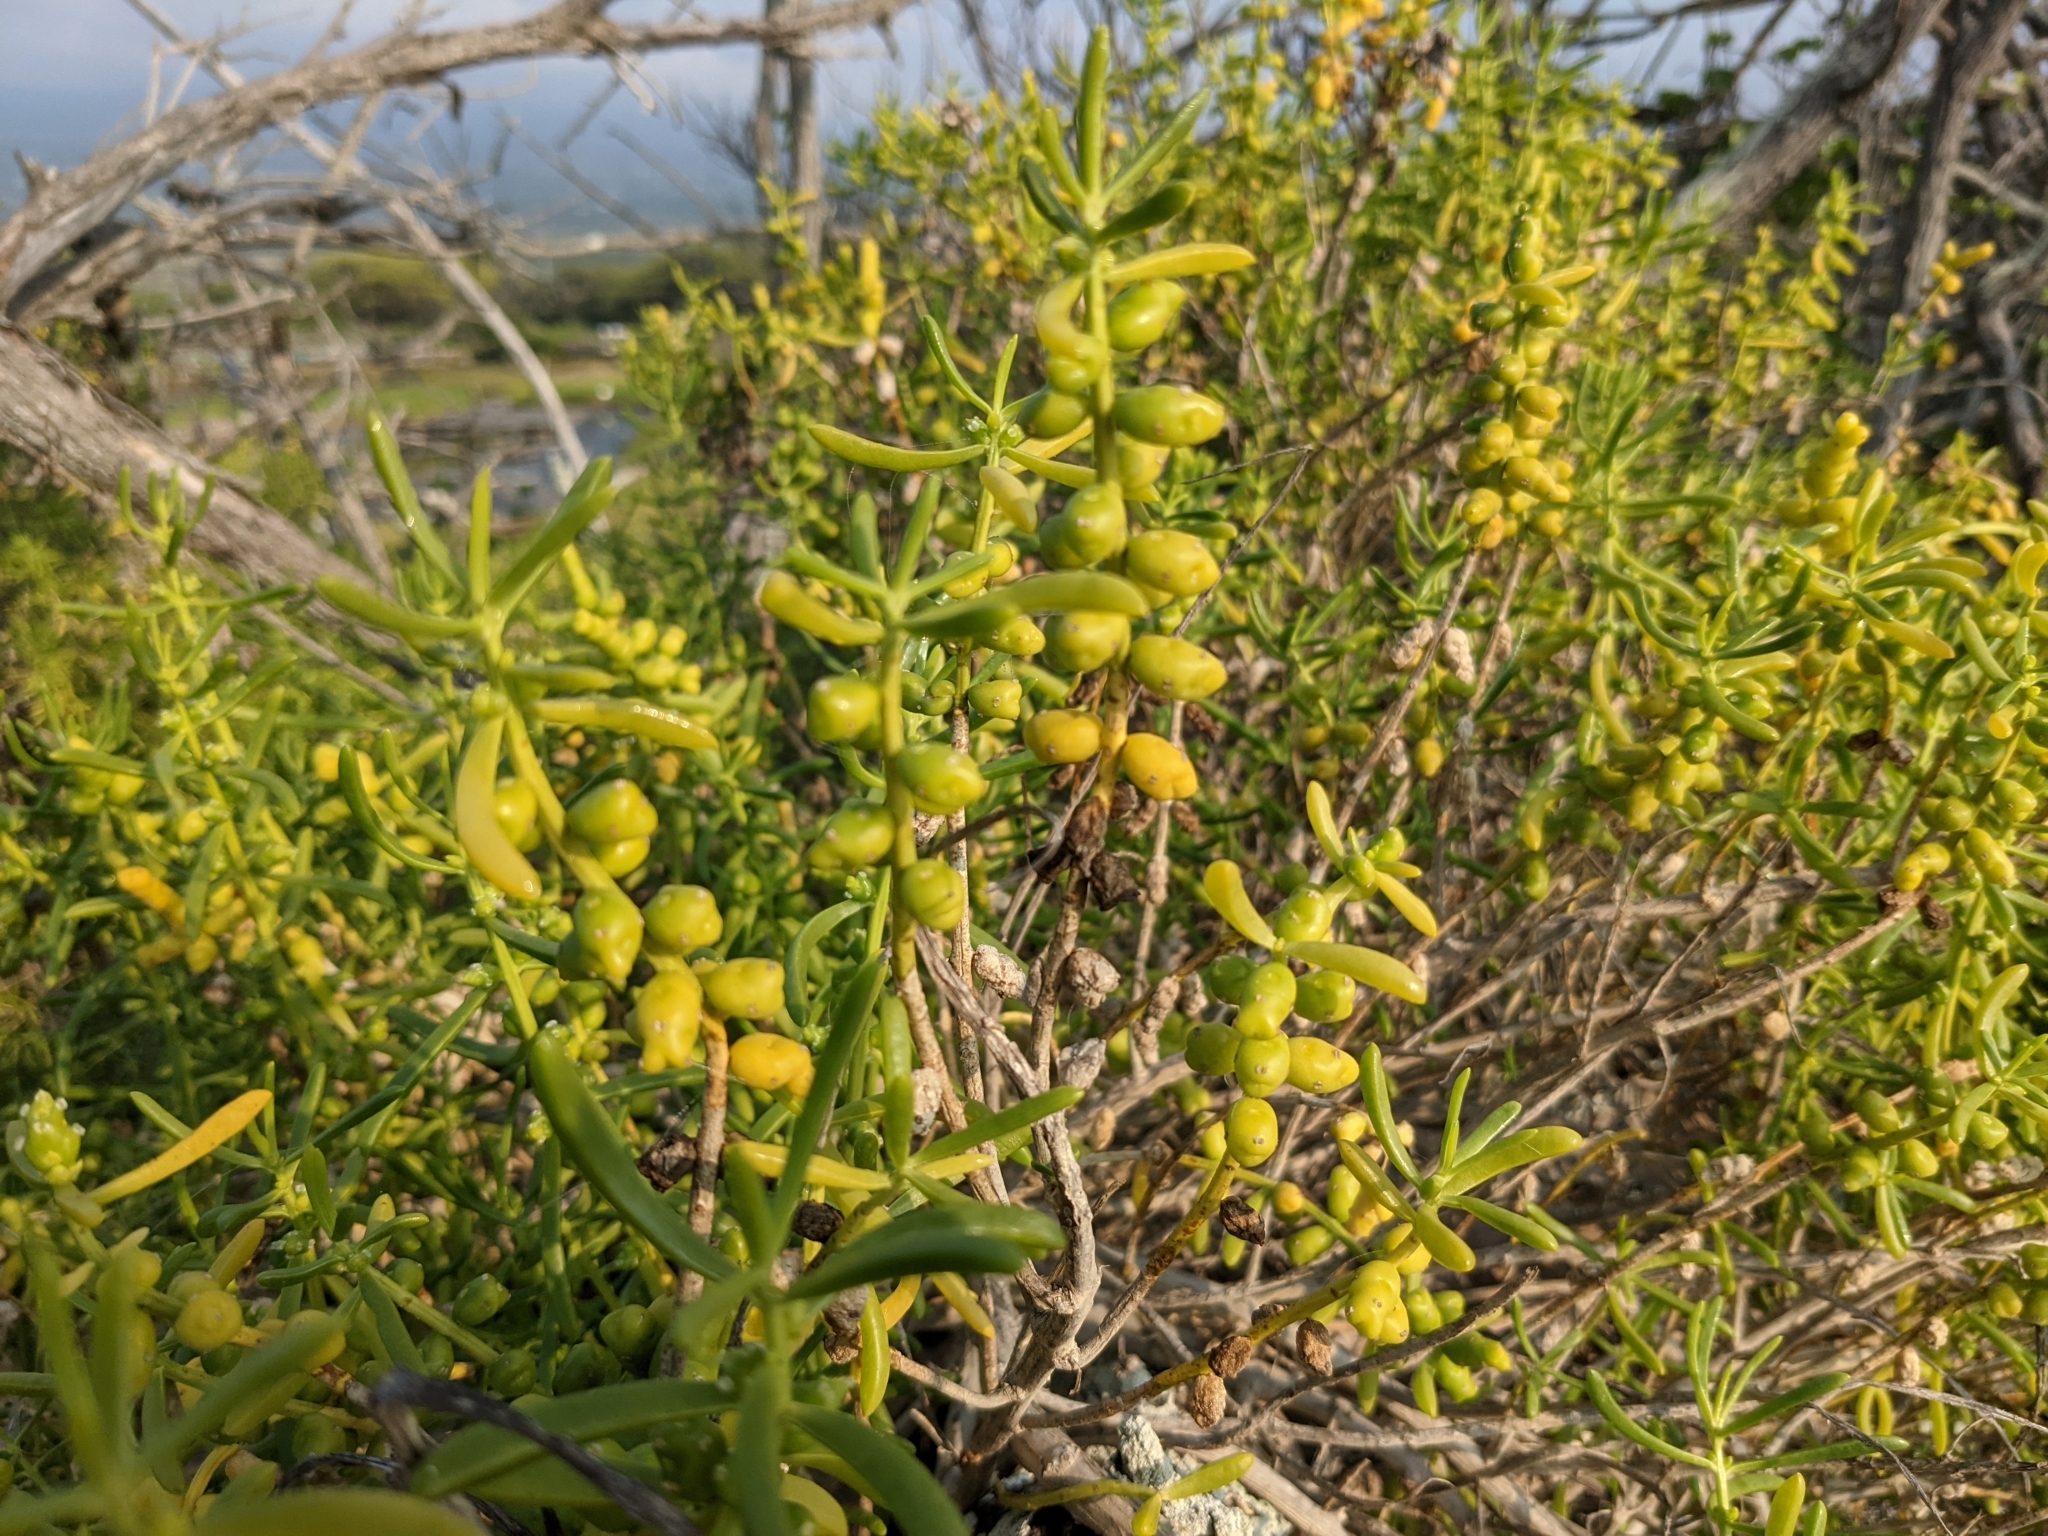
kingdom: Plantae
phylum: Tracheophyta
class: Magnoliopsida
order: Brassicales
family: Bataceae
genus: Batis
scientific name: Batis maritima
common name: Turtleweed
